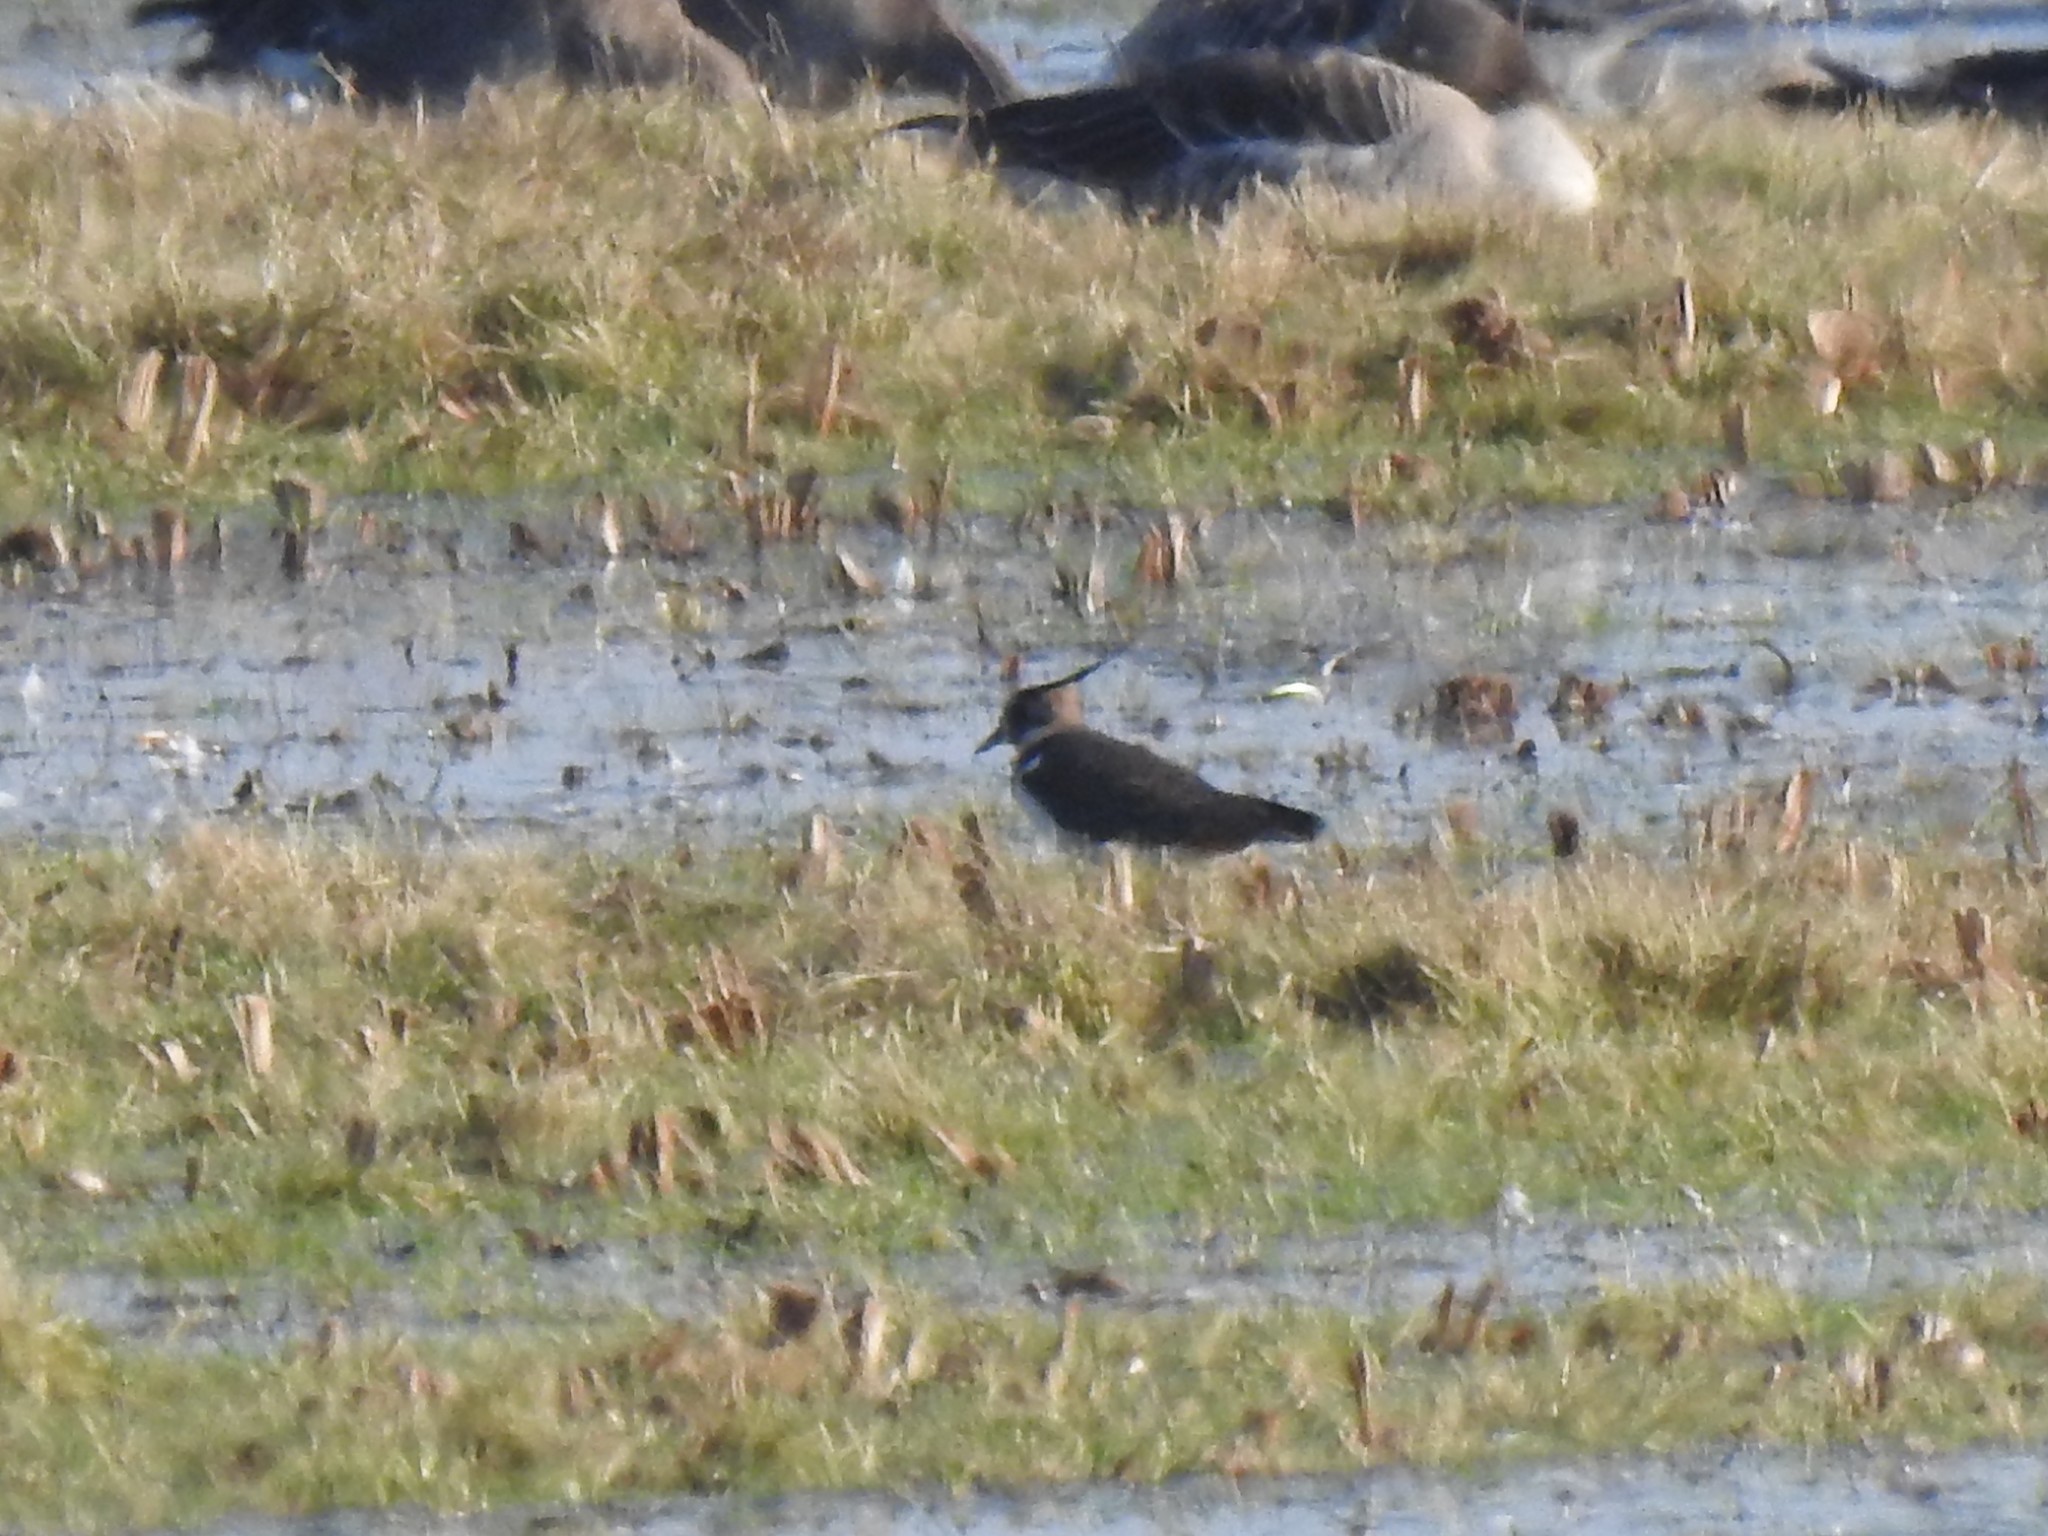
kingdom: Animalia
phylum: Chordata
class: Aves
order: Charadriiformes
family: Charadriidae
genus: Vanellus
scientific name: Vanellus vanellus
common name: Northern lapwing
